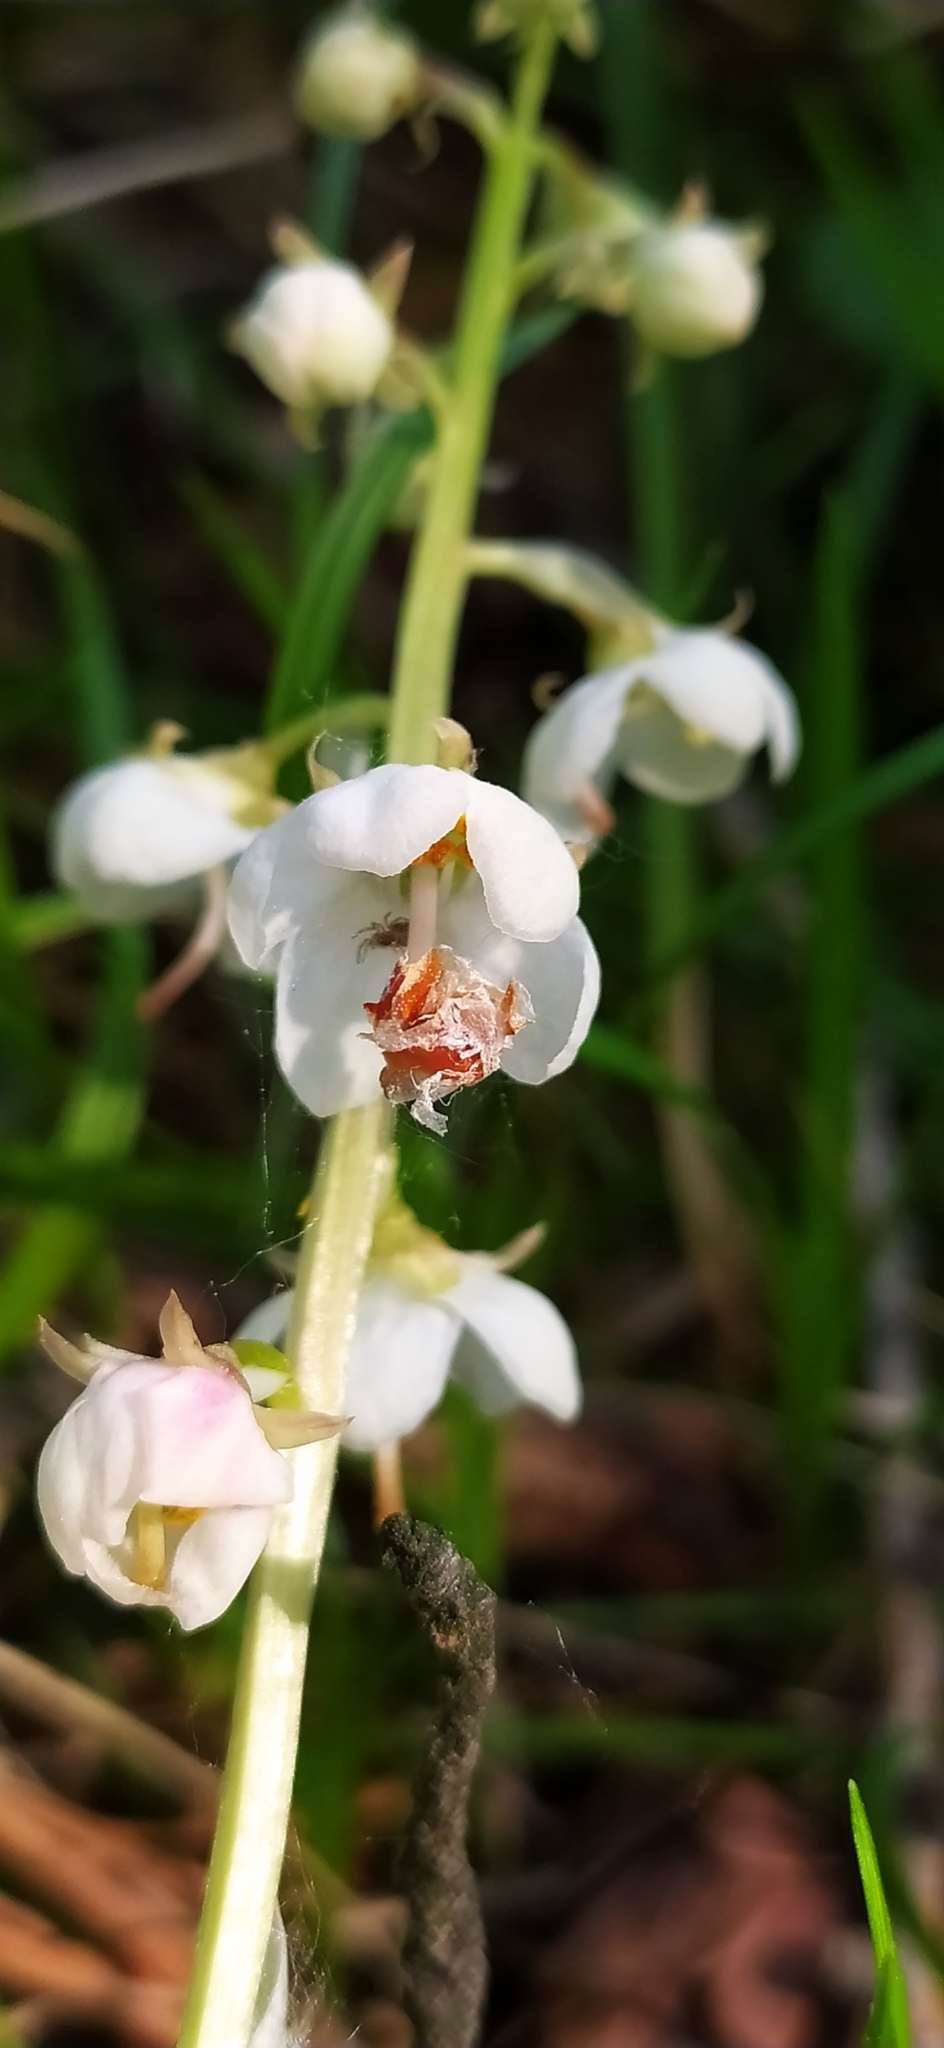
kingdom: Plantae
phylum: Tracheophyta
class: Magnoliopsida
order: Ericales
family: Ericaceae
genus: Pyrola
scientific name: Pyrola rotundifolia
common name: Round-leaved wintergreen
